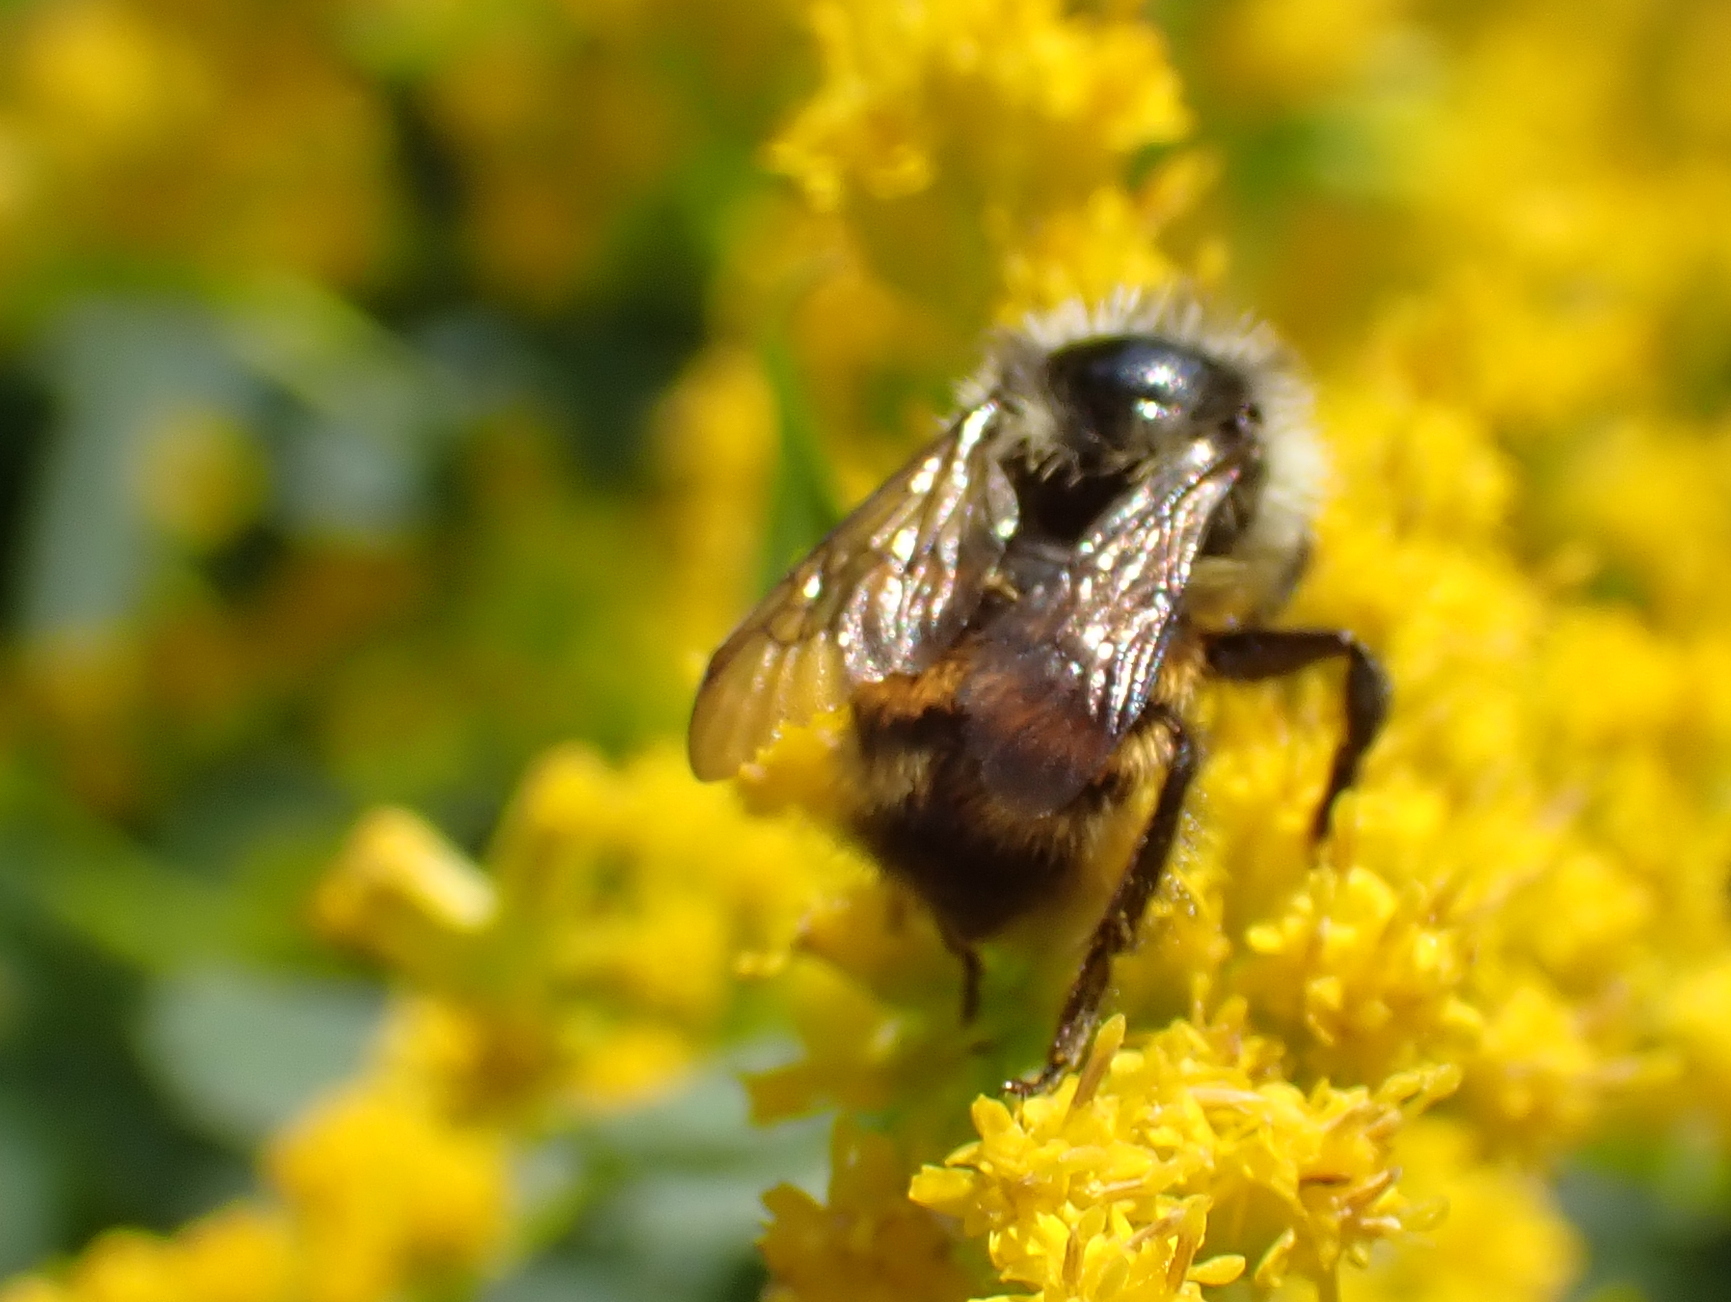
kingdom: Animalia
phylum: Arthropoda
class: Insecta
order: Hymenoptera
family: Apidae
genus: Bombus
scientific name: Bombus ternarius
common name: Tri-colored bumble bee
